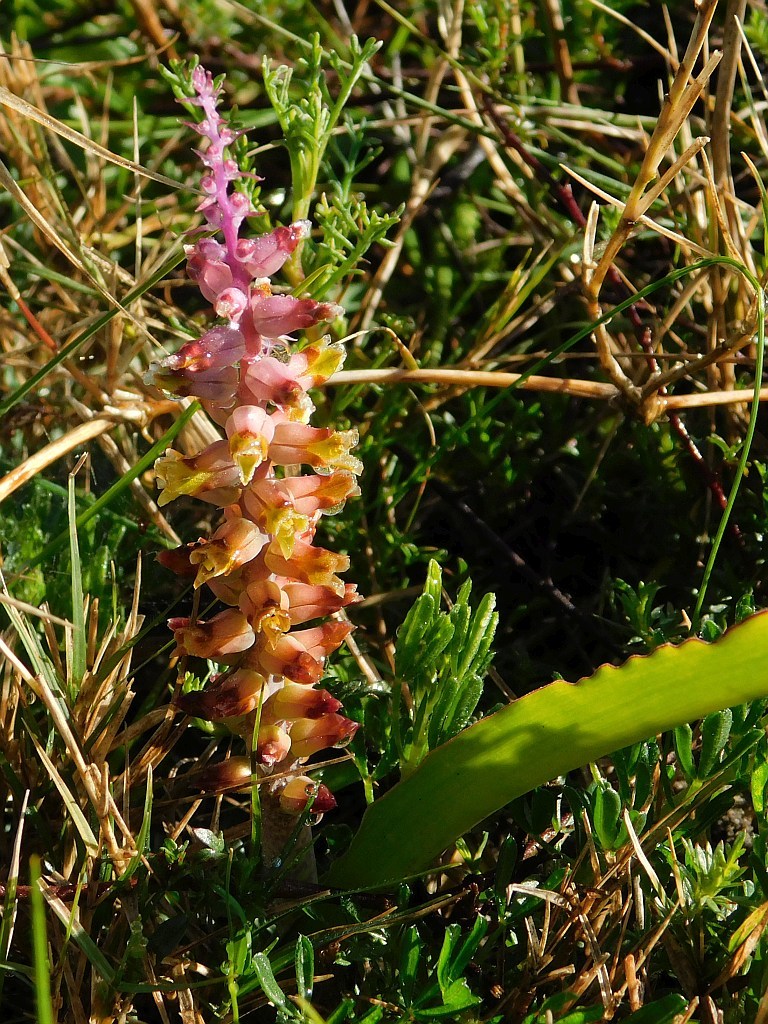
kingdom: Plantae
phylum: Tracheophyta
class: Liliopsida
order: Asparagales
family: Asparagaceae
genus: Lachenalia
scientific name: Lachenalia mutabilis
